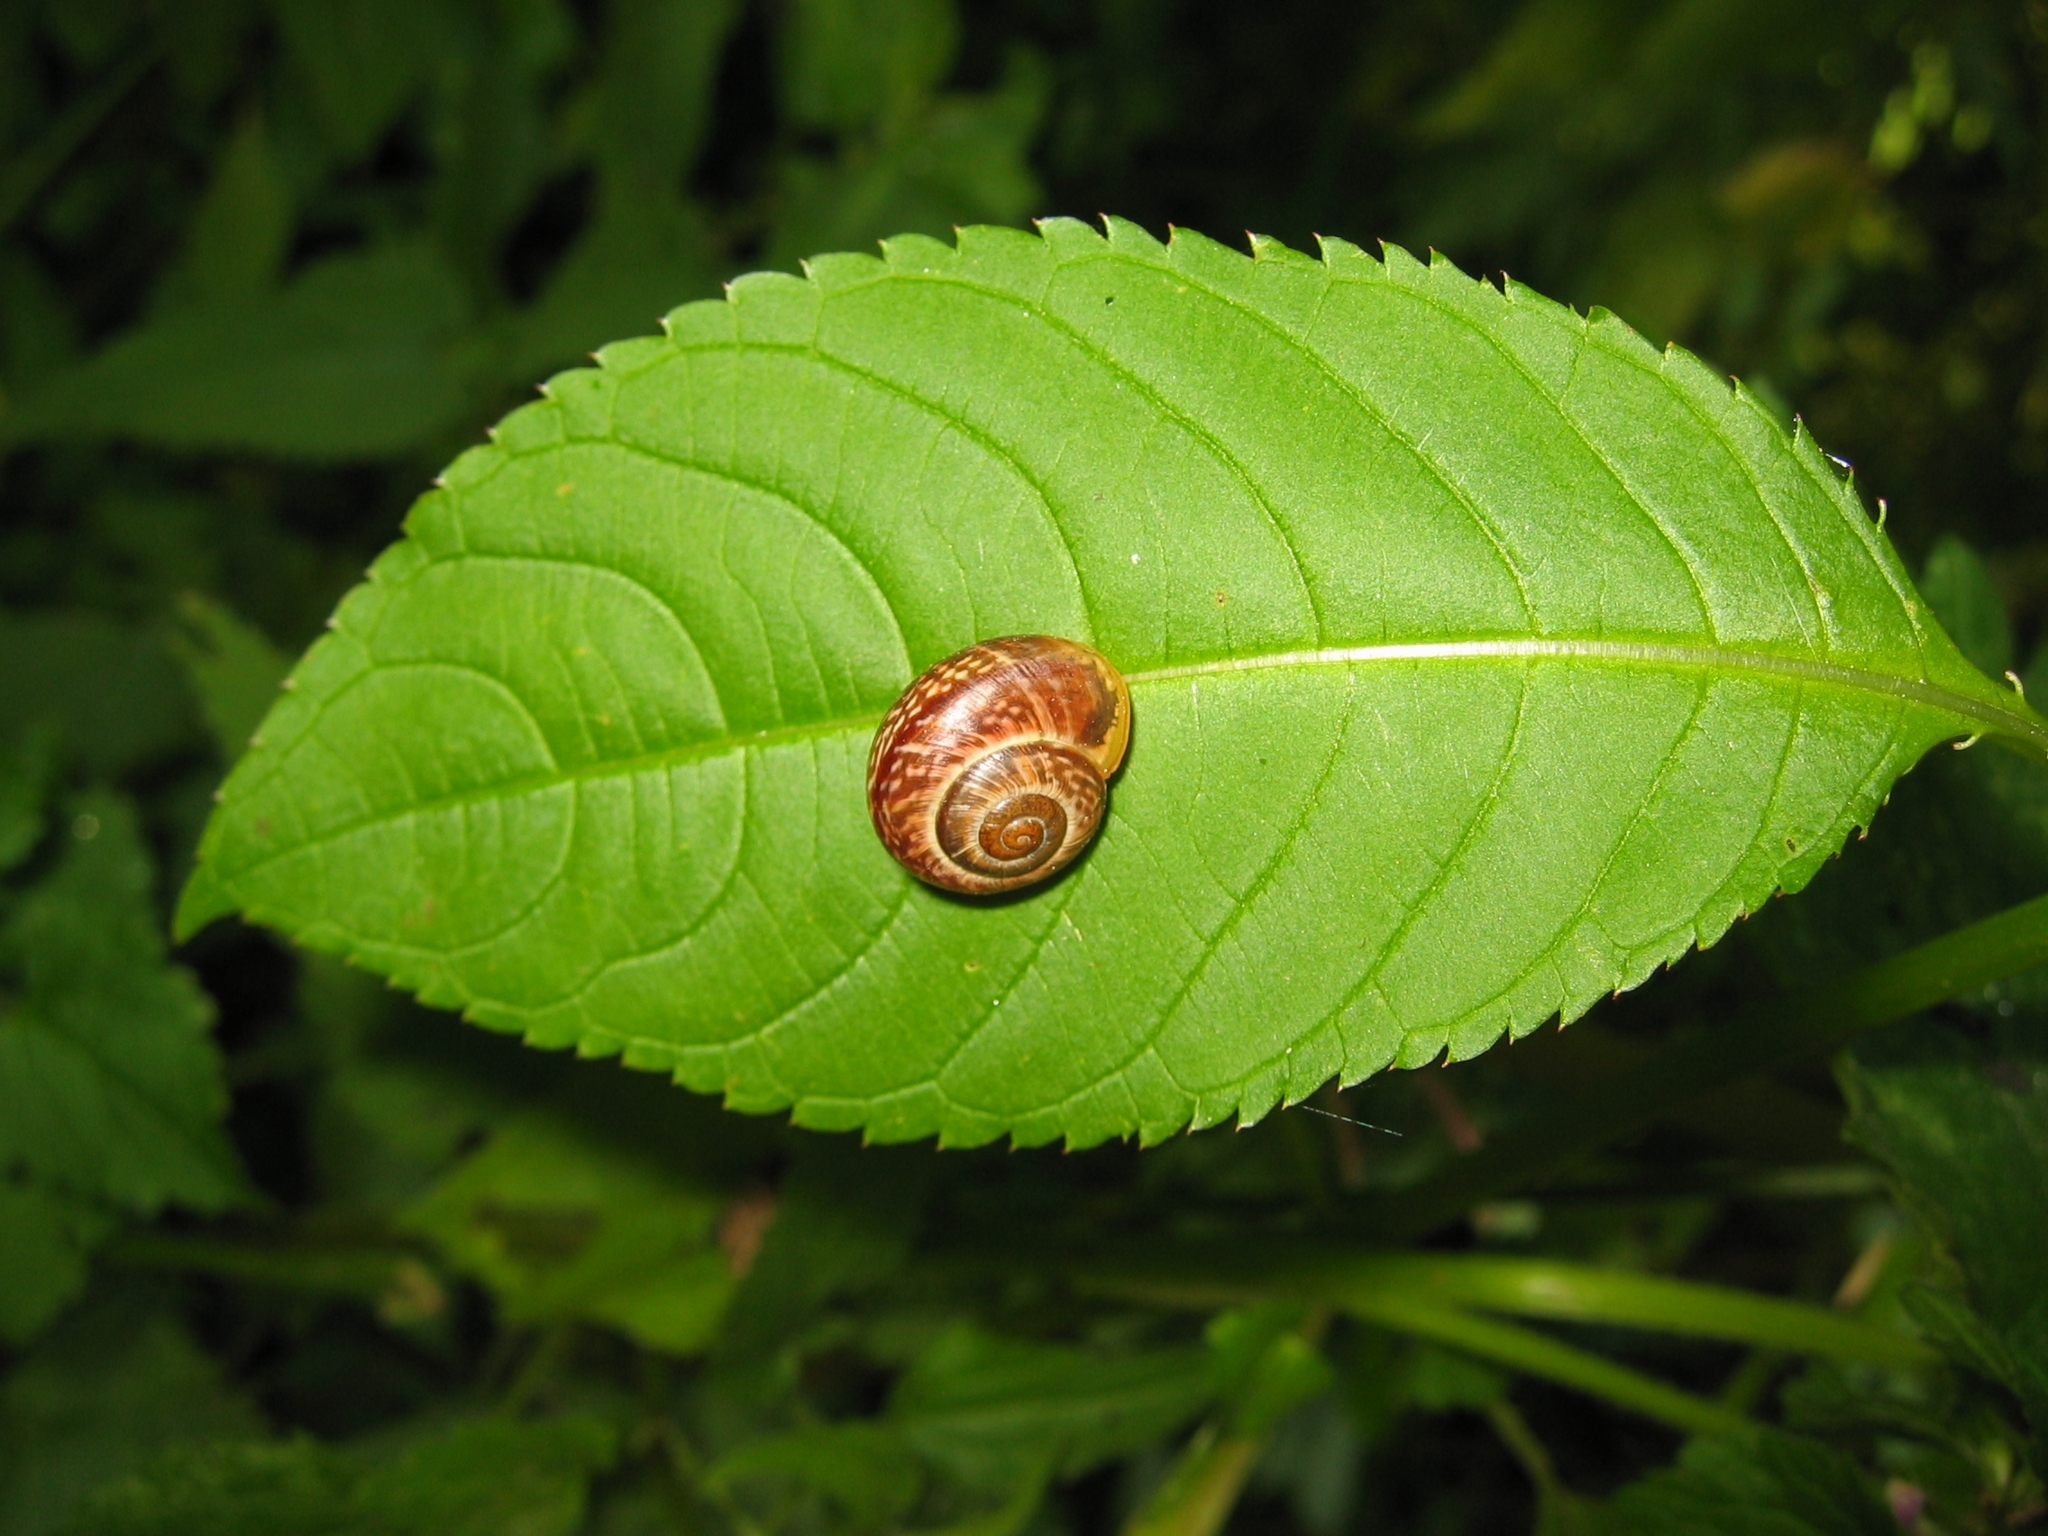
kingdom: Animalia
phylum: Mollusca
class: Gastropoda
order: Stylommatophora
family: Helicidae
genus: Arianta
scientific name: Arianta arbustorum
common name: Copse snail
